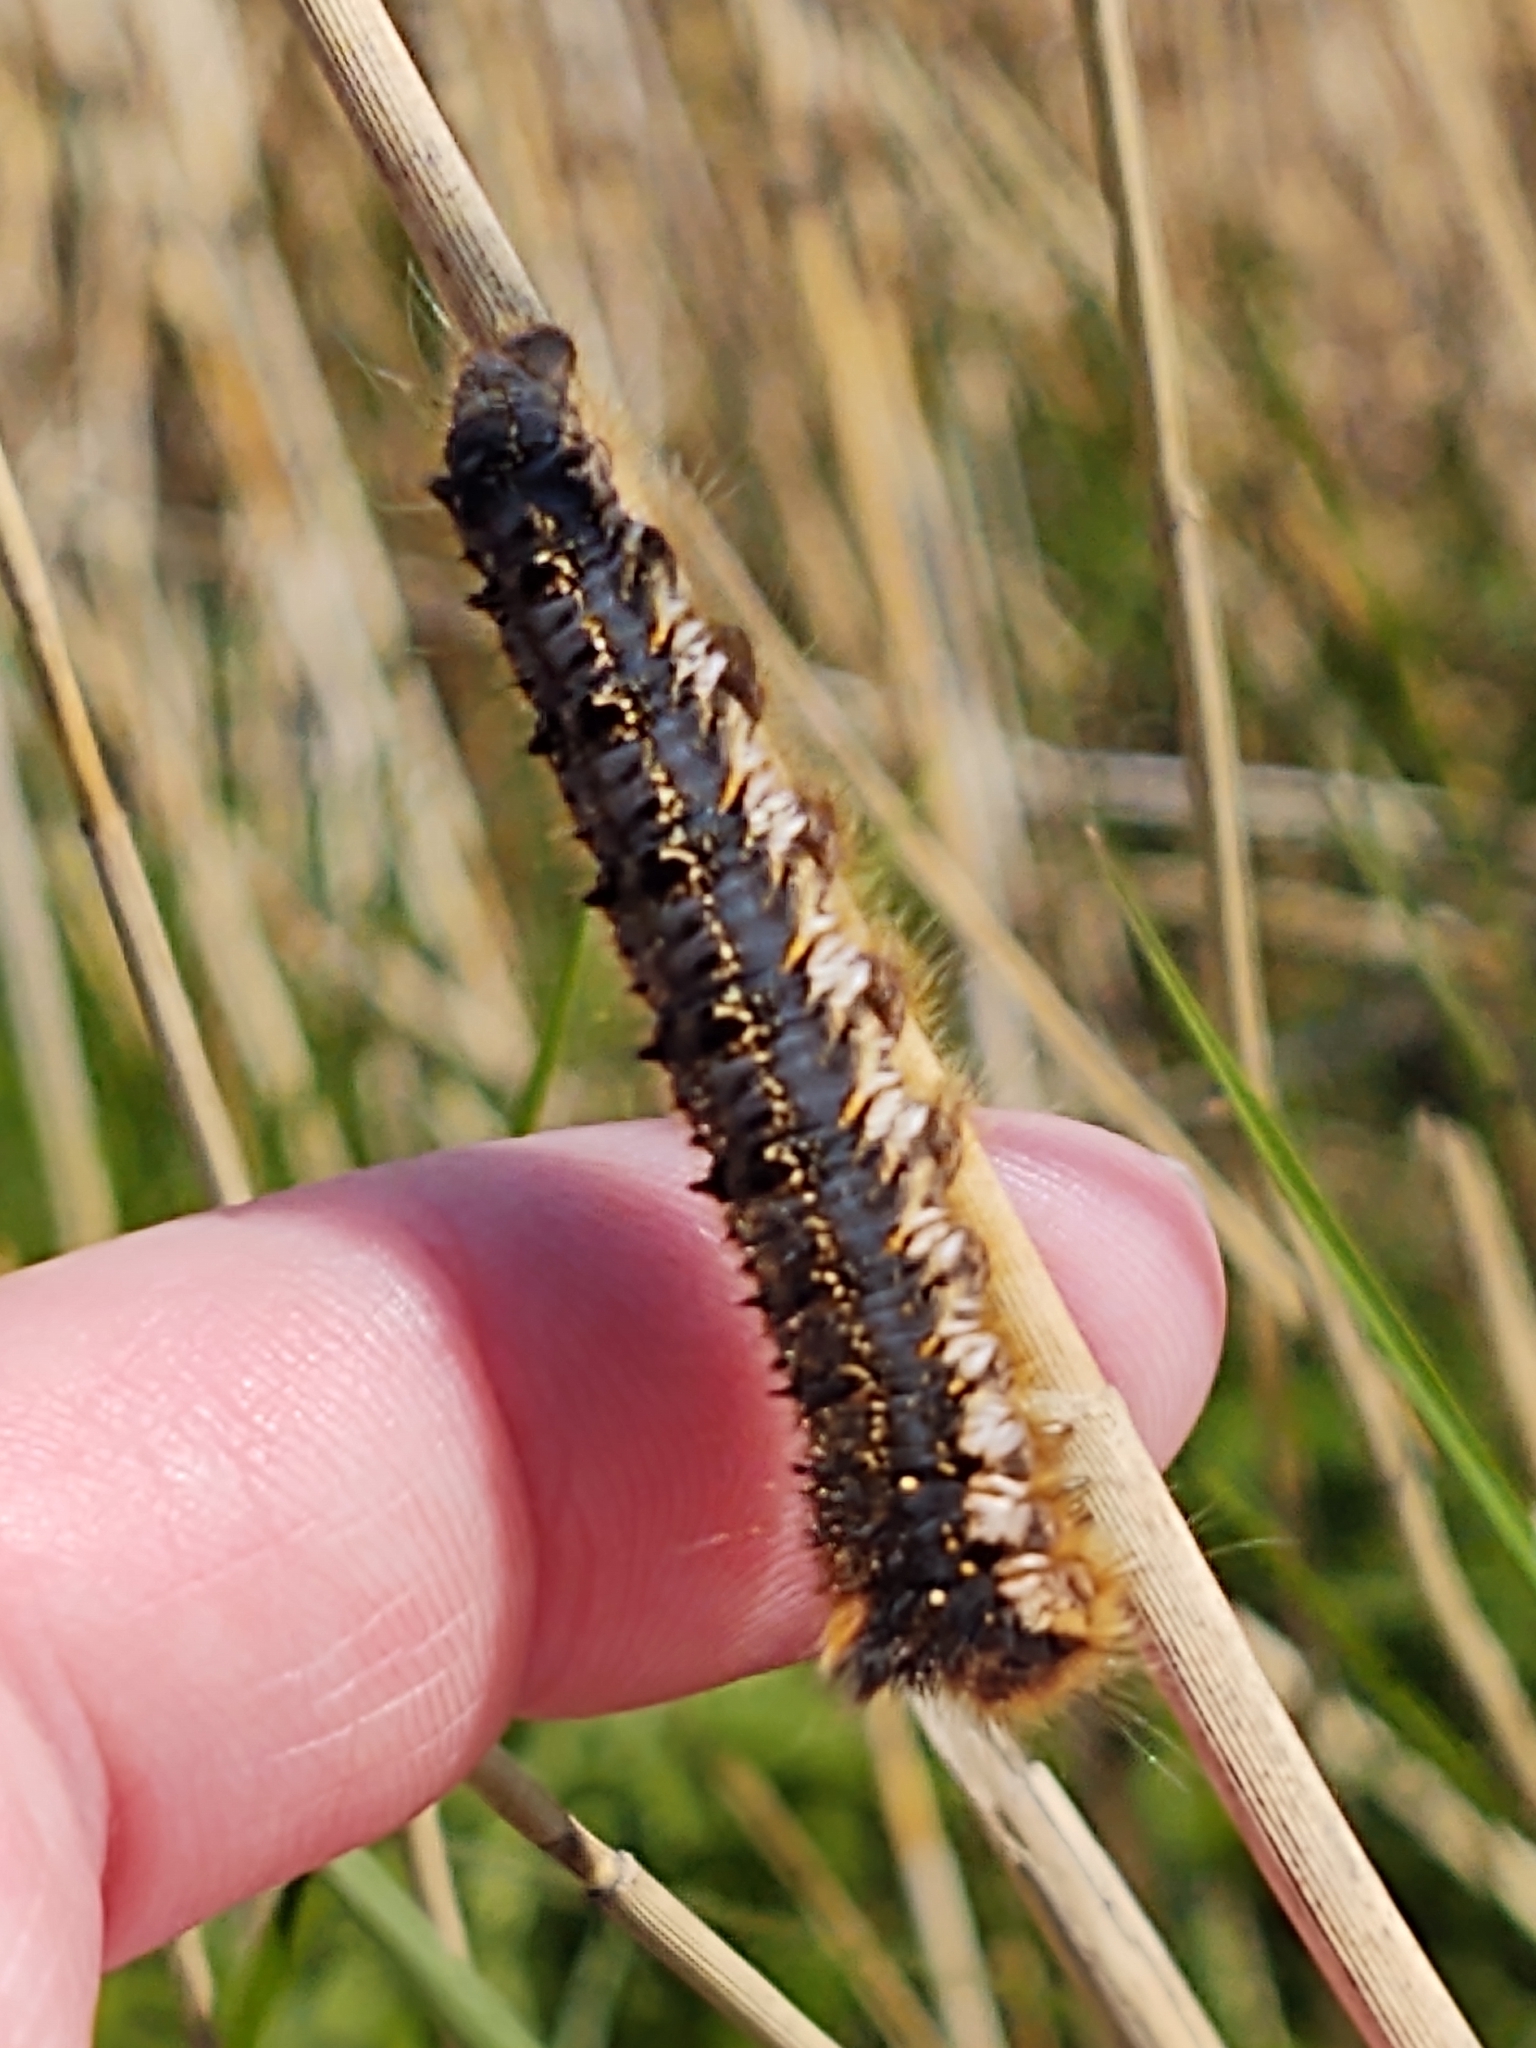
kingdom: Animalia
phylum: Arthropoda
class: Insecta
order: Lepidoptera
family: Lasiocampidae
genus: Euthrix
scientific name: Euthrix potatoria
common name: Drinker
